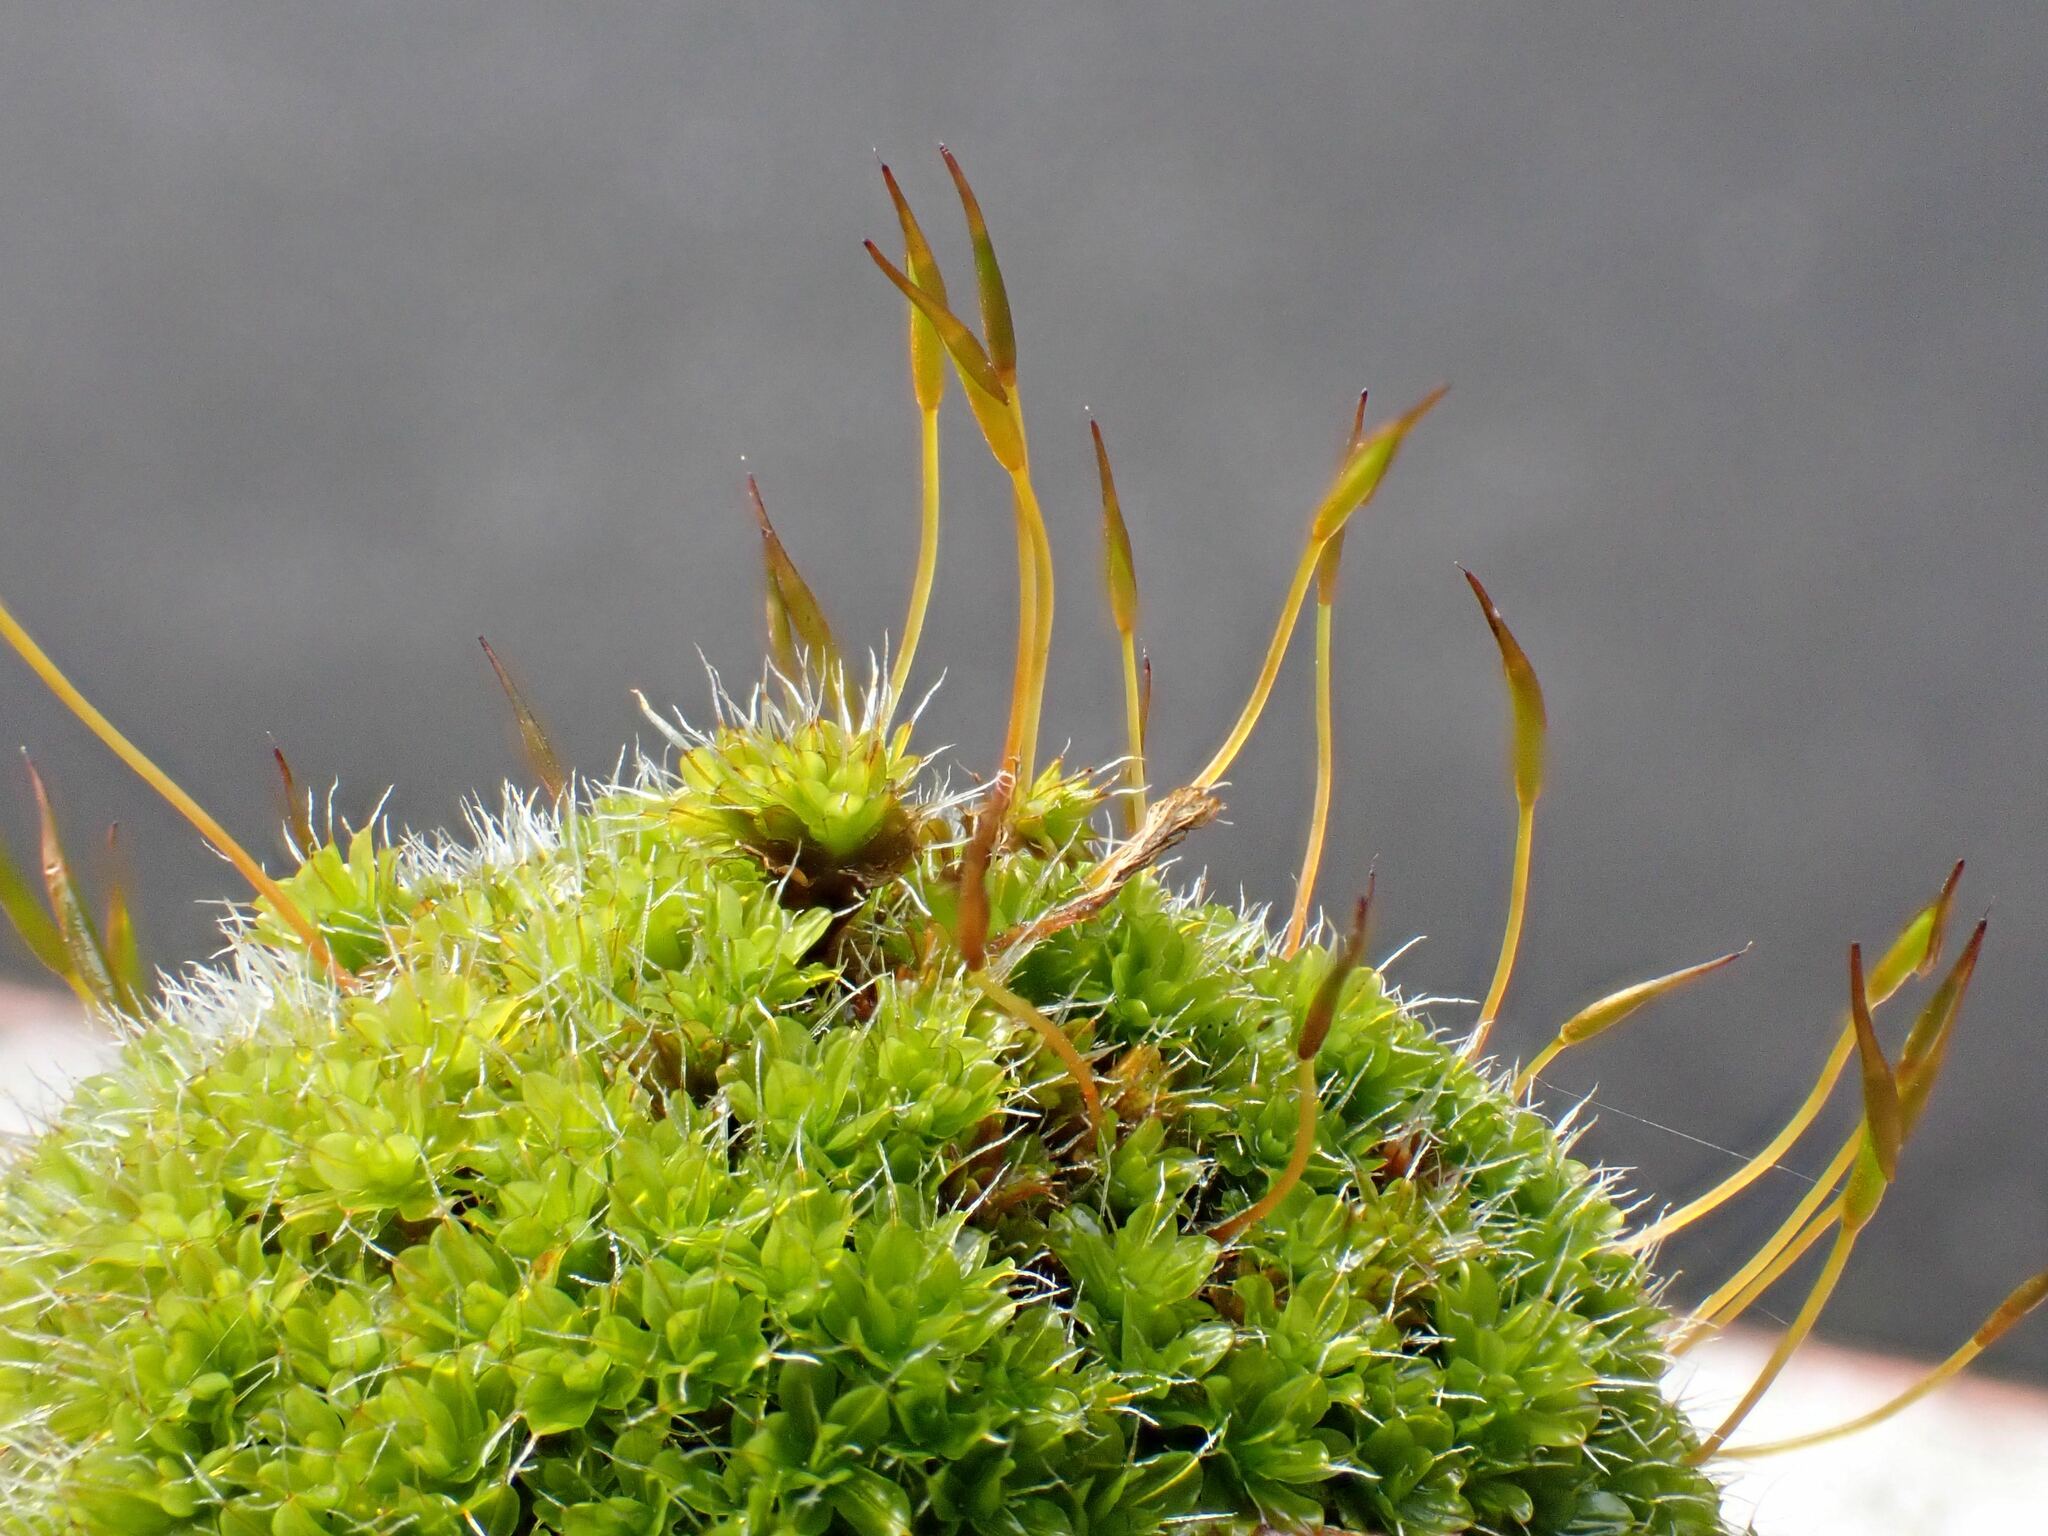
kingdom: Plantae
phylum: Bryophyta
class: Bryopsida
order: Pottiales
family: Pottiaceae
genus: Syntrichia
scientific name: Syntrichia montana
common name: Intermediate screw-moss
